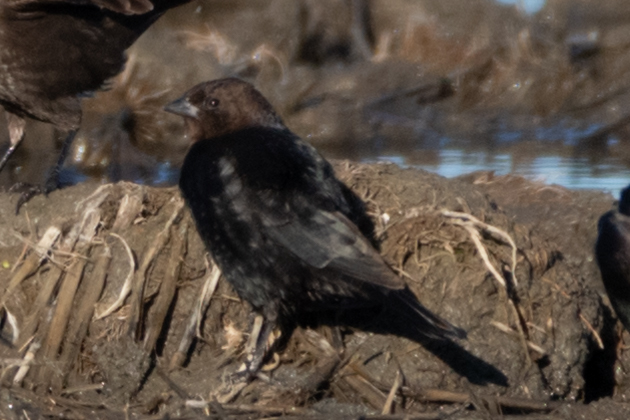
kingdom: Animalia
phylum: Chordata
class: Aves
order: Passeriformes
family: Icteridae
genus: Molothrus
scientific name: Molothrus ater
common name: Brown-headed cowbird
